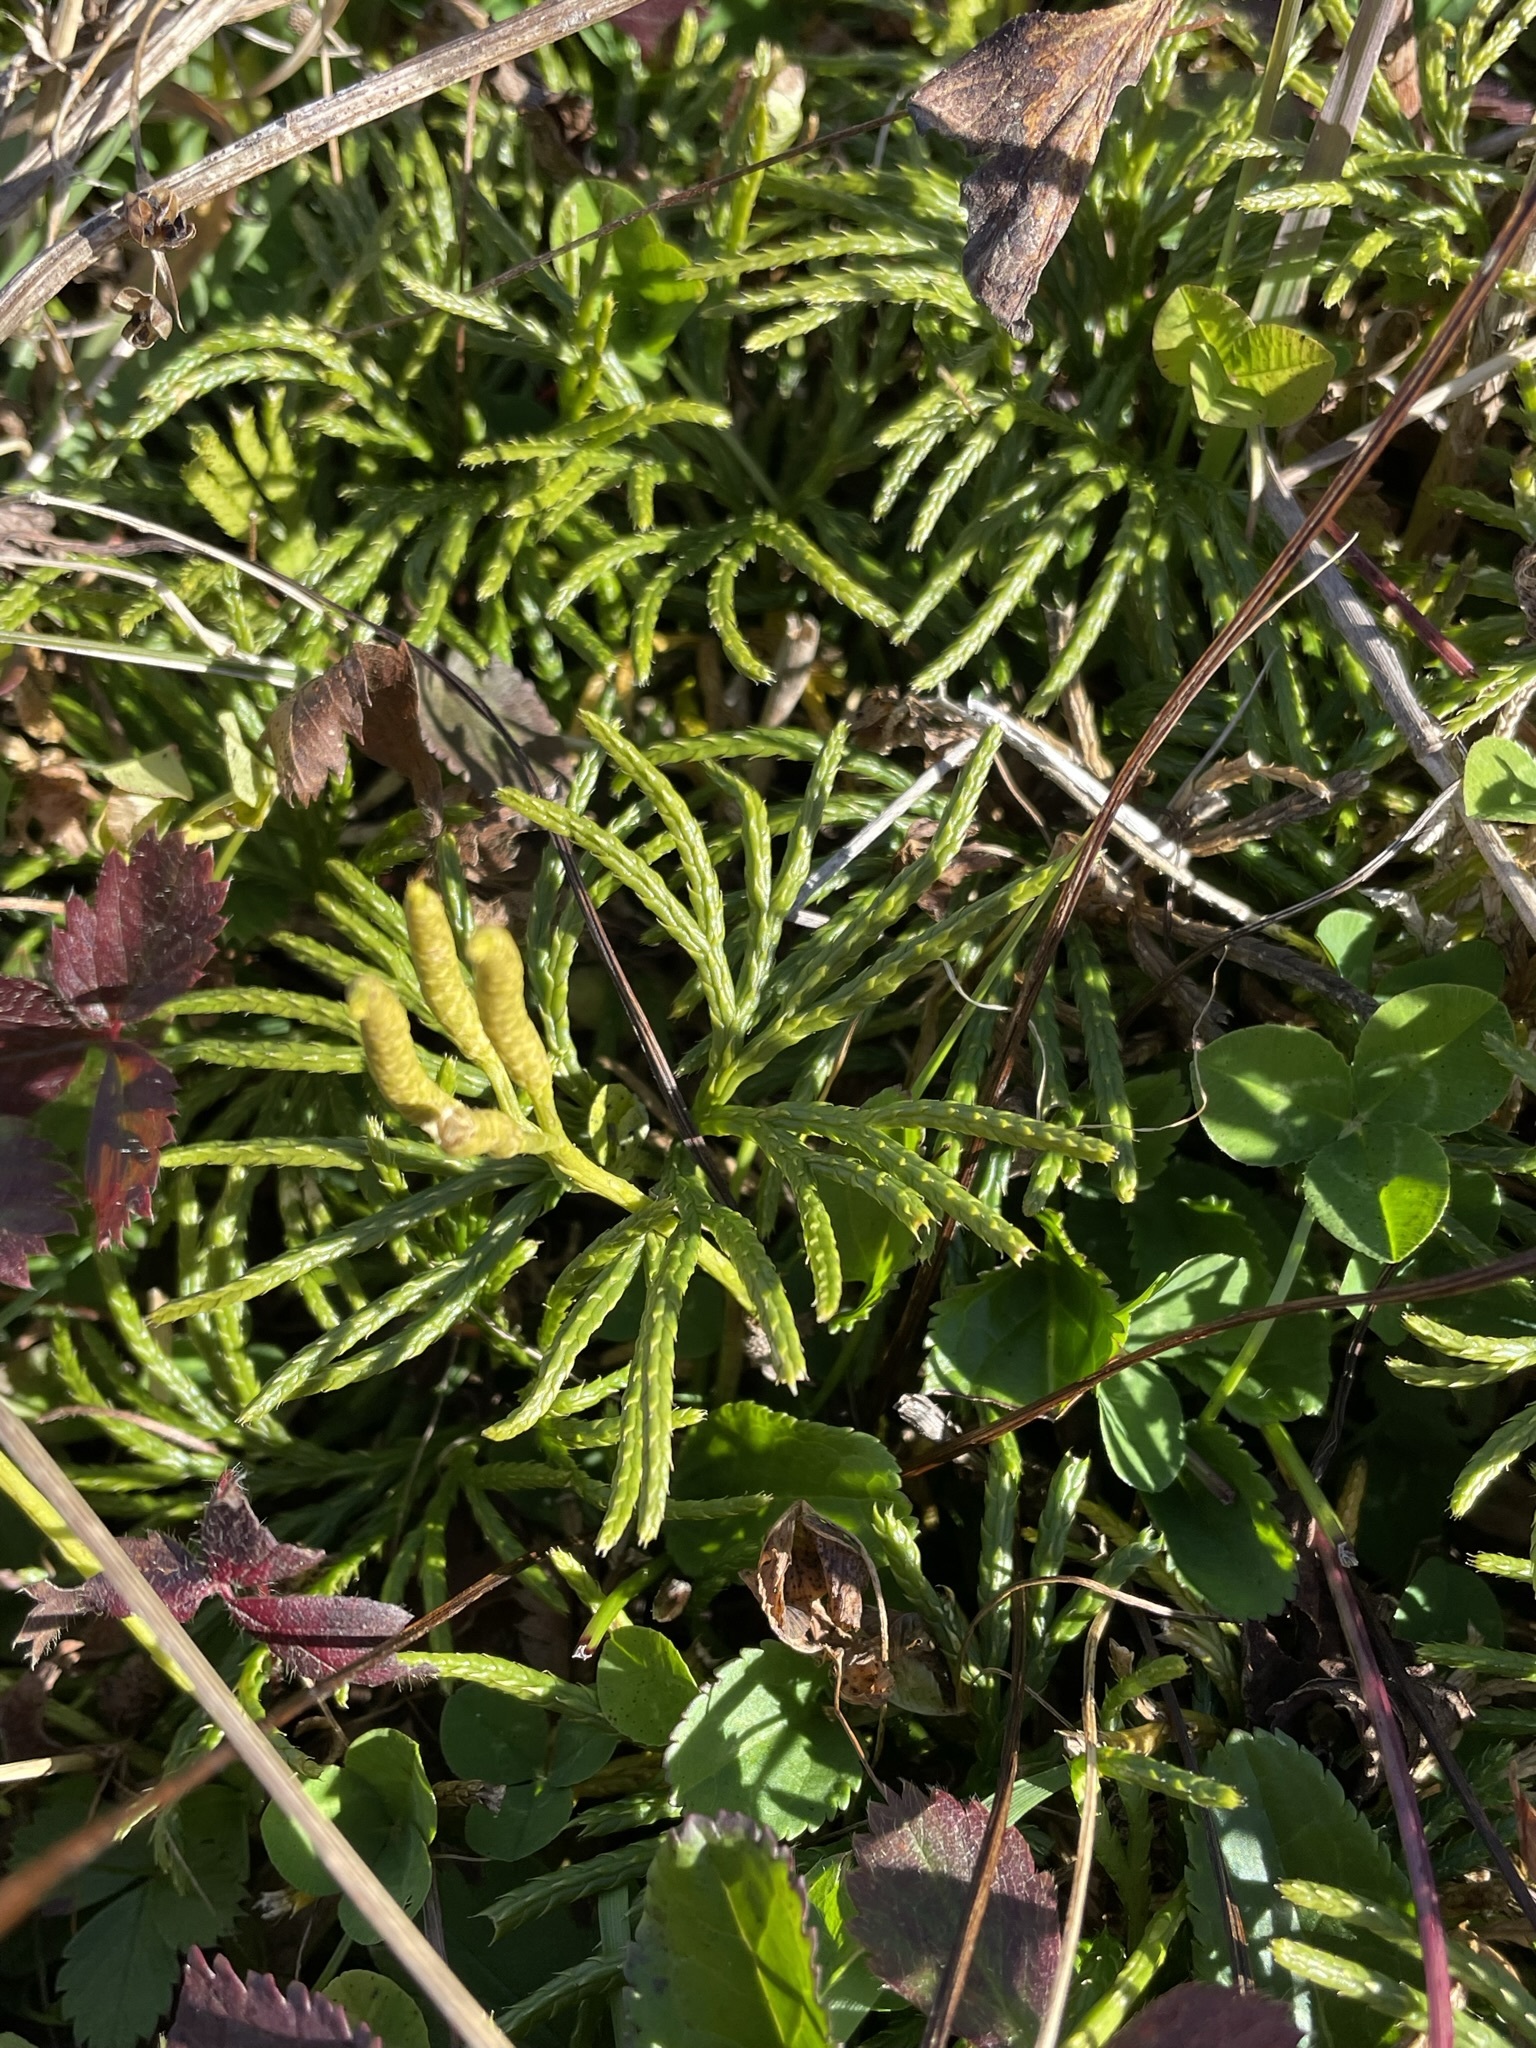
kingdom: Plantae
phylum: Tracheophyta
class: Lycopodiopsida
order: Lycopodiales
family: Lycopodiaceae
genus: Diphasiastrum
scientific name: Diphasiastrum digitatum
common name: Southern running-pine
